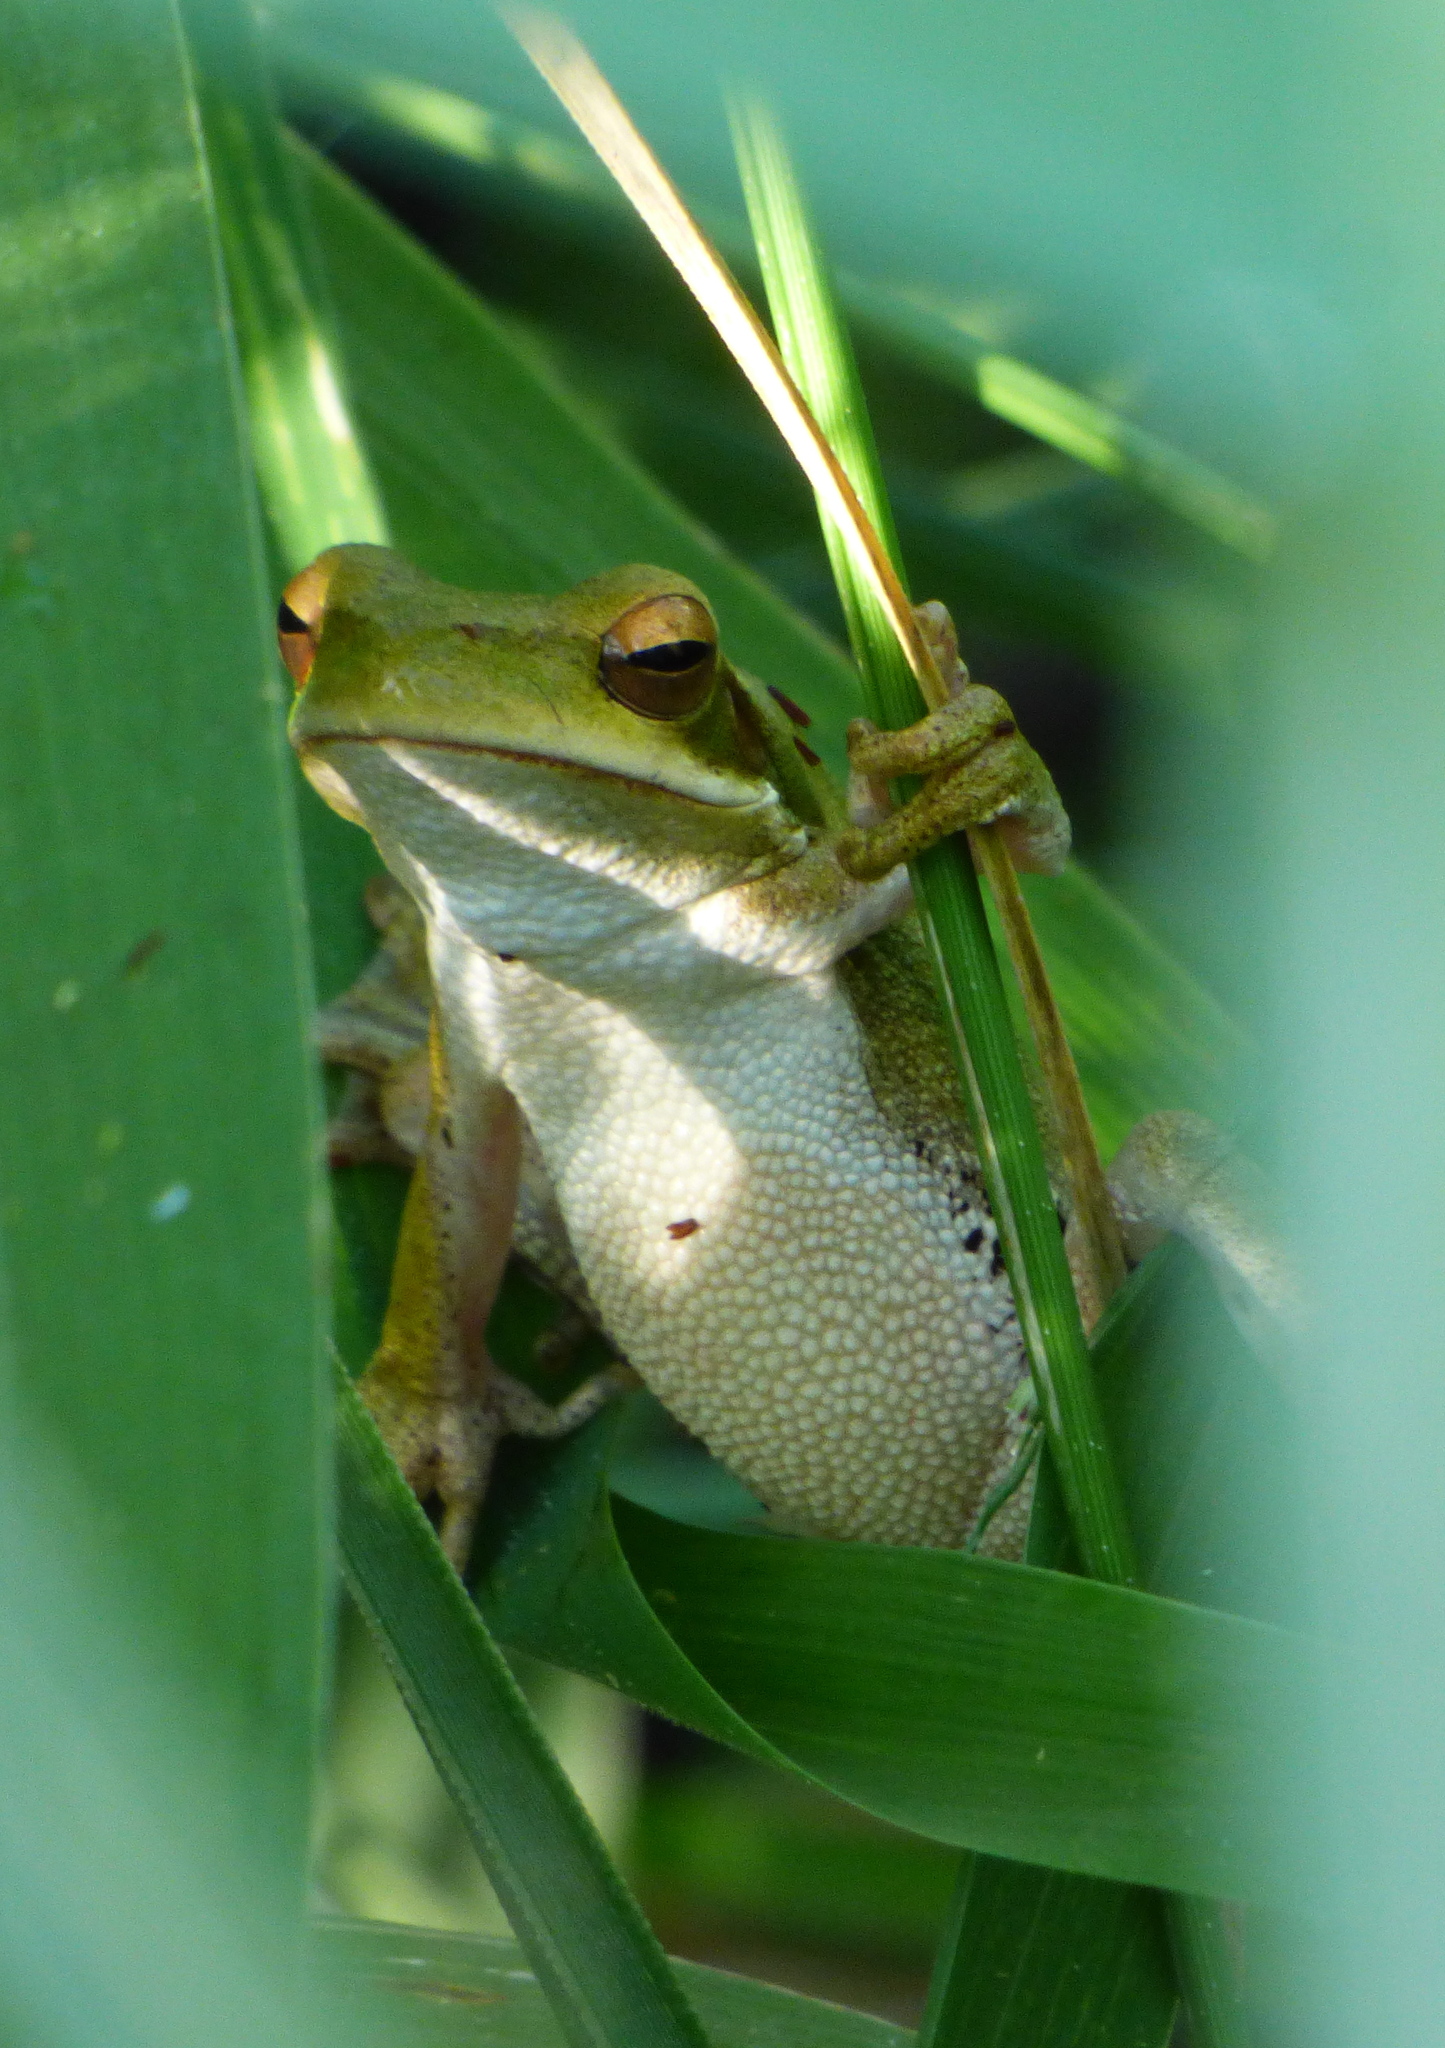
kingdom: Animalia
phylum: Chordata
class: Amphibia
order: Anura
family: Hylidae
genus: Boana
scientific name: Boana pulchella
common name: Montevideo treefrog
